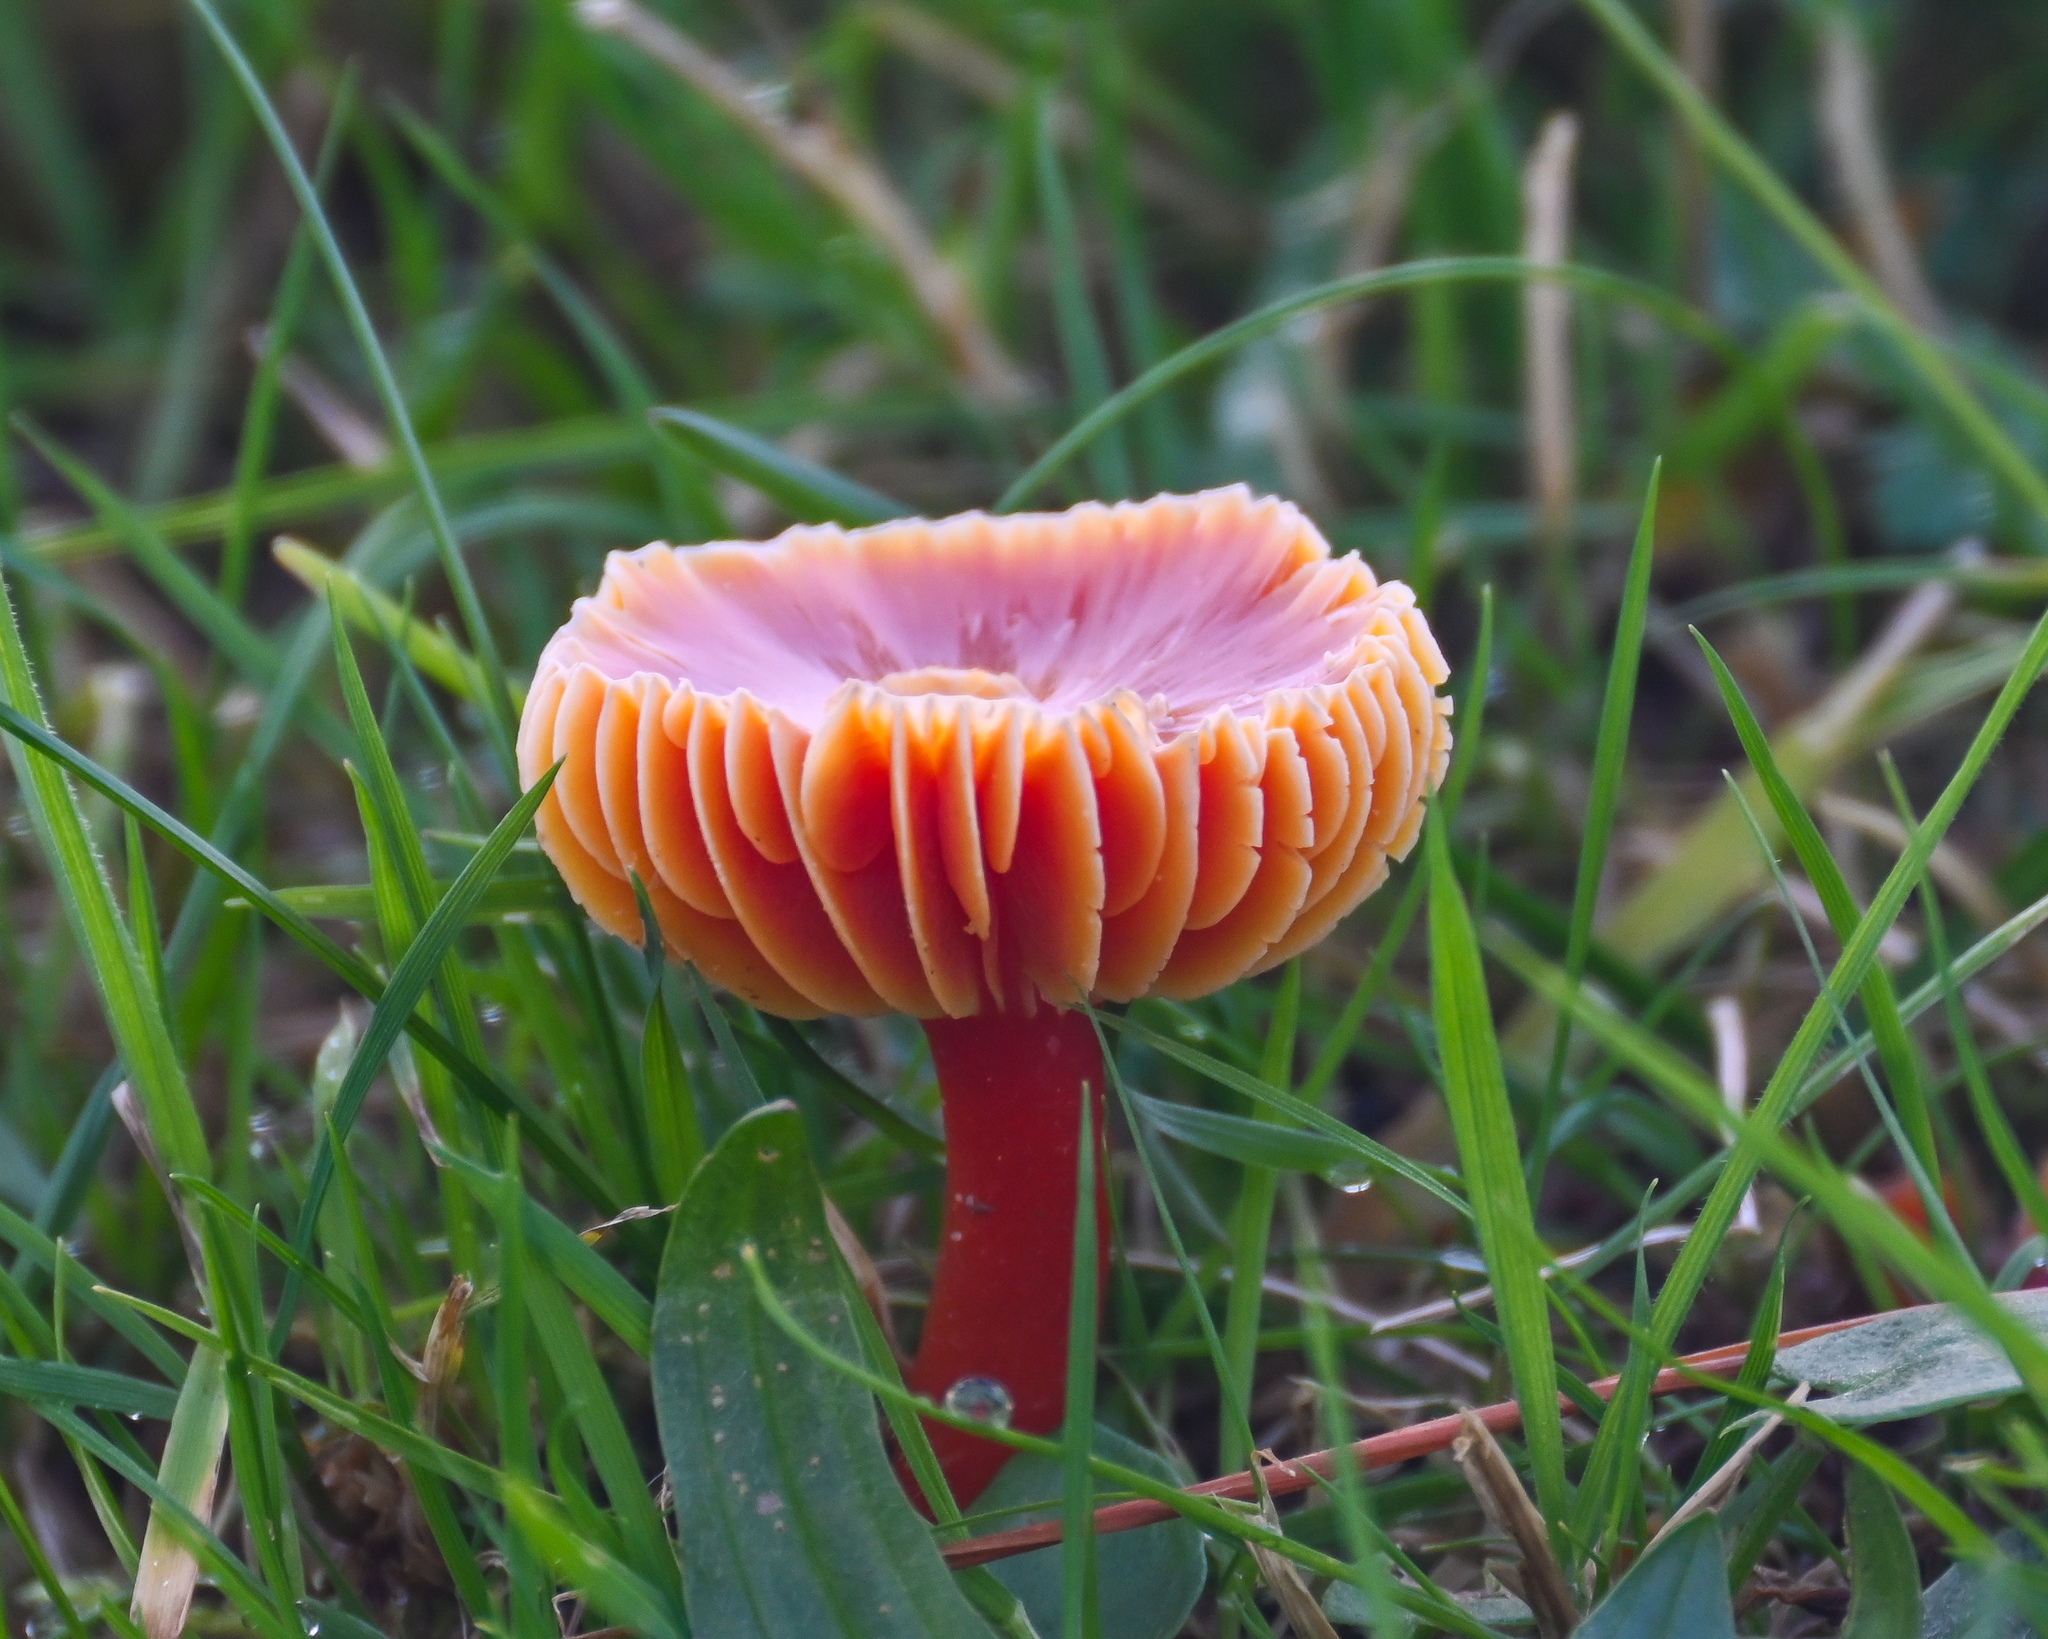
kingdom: Fungi
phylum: Basidiomycota
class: Agaricomycetes
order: Agaricales
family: Hygrophoraceae
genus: Hygrocybe
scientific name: Hygrocybe coccinea
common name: Scarlet hood
